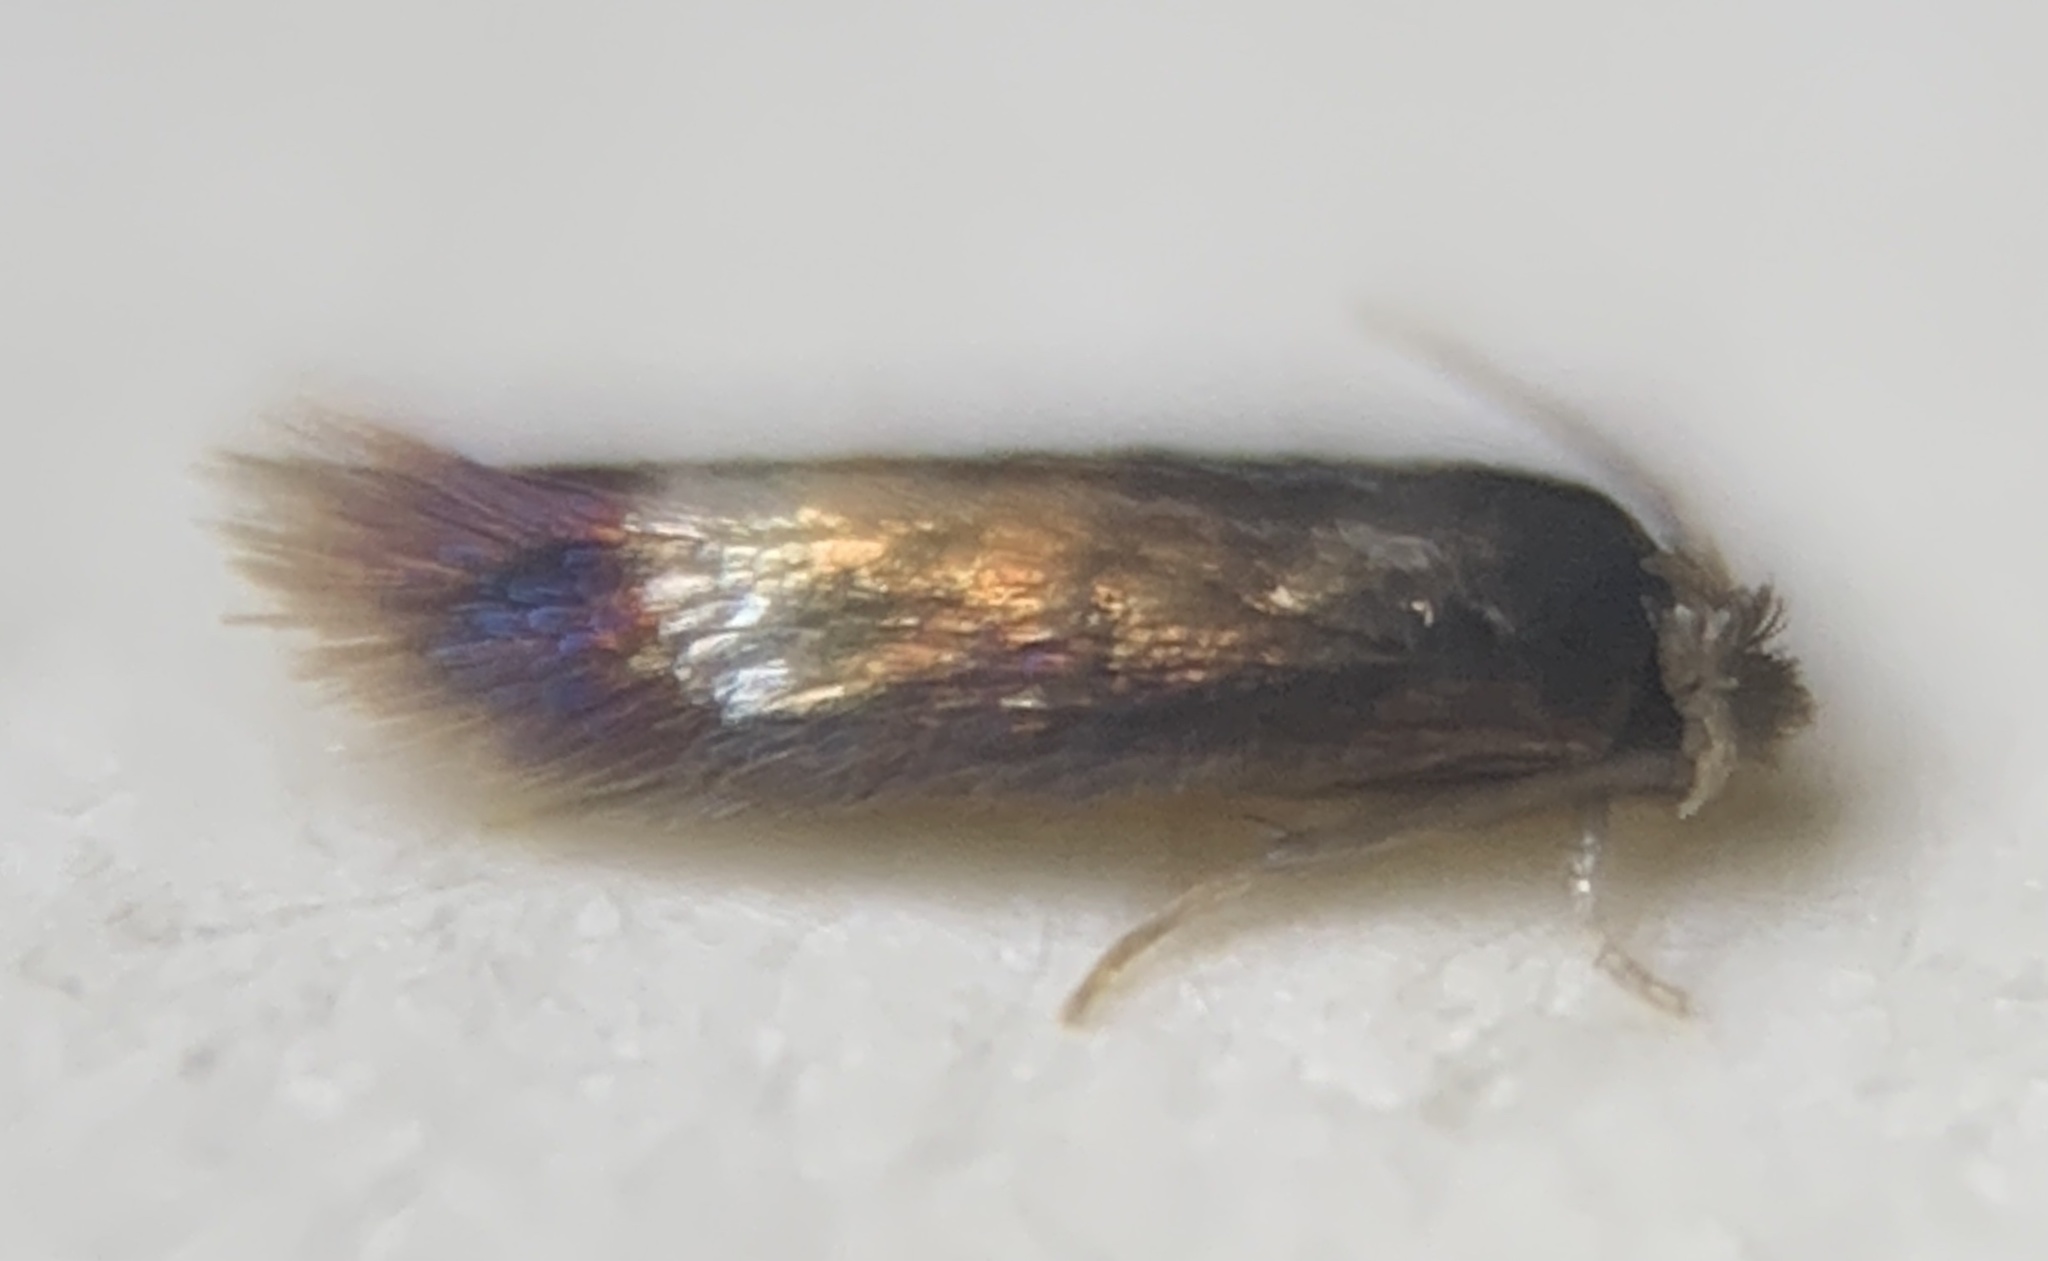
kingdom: Animalia
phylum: Arthropoda
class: Insecta
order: Lepidoptera
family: Nepticulidae
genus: Stigmella
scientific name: Stigmella multispicata
